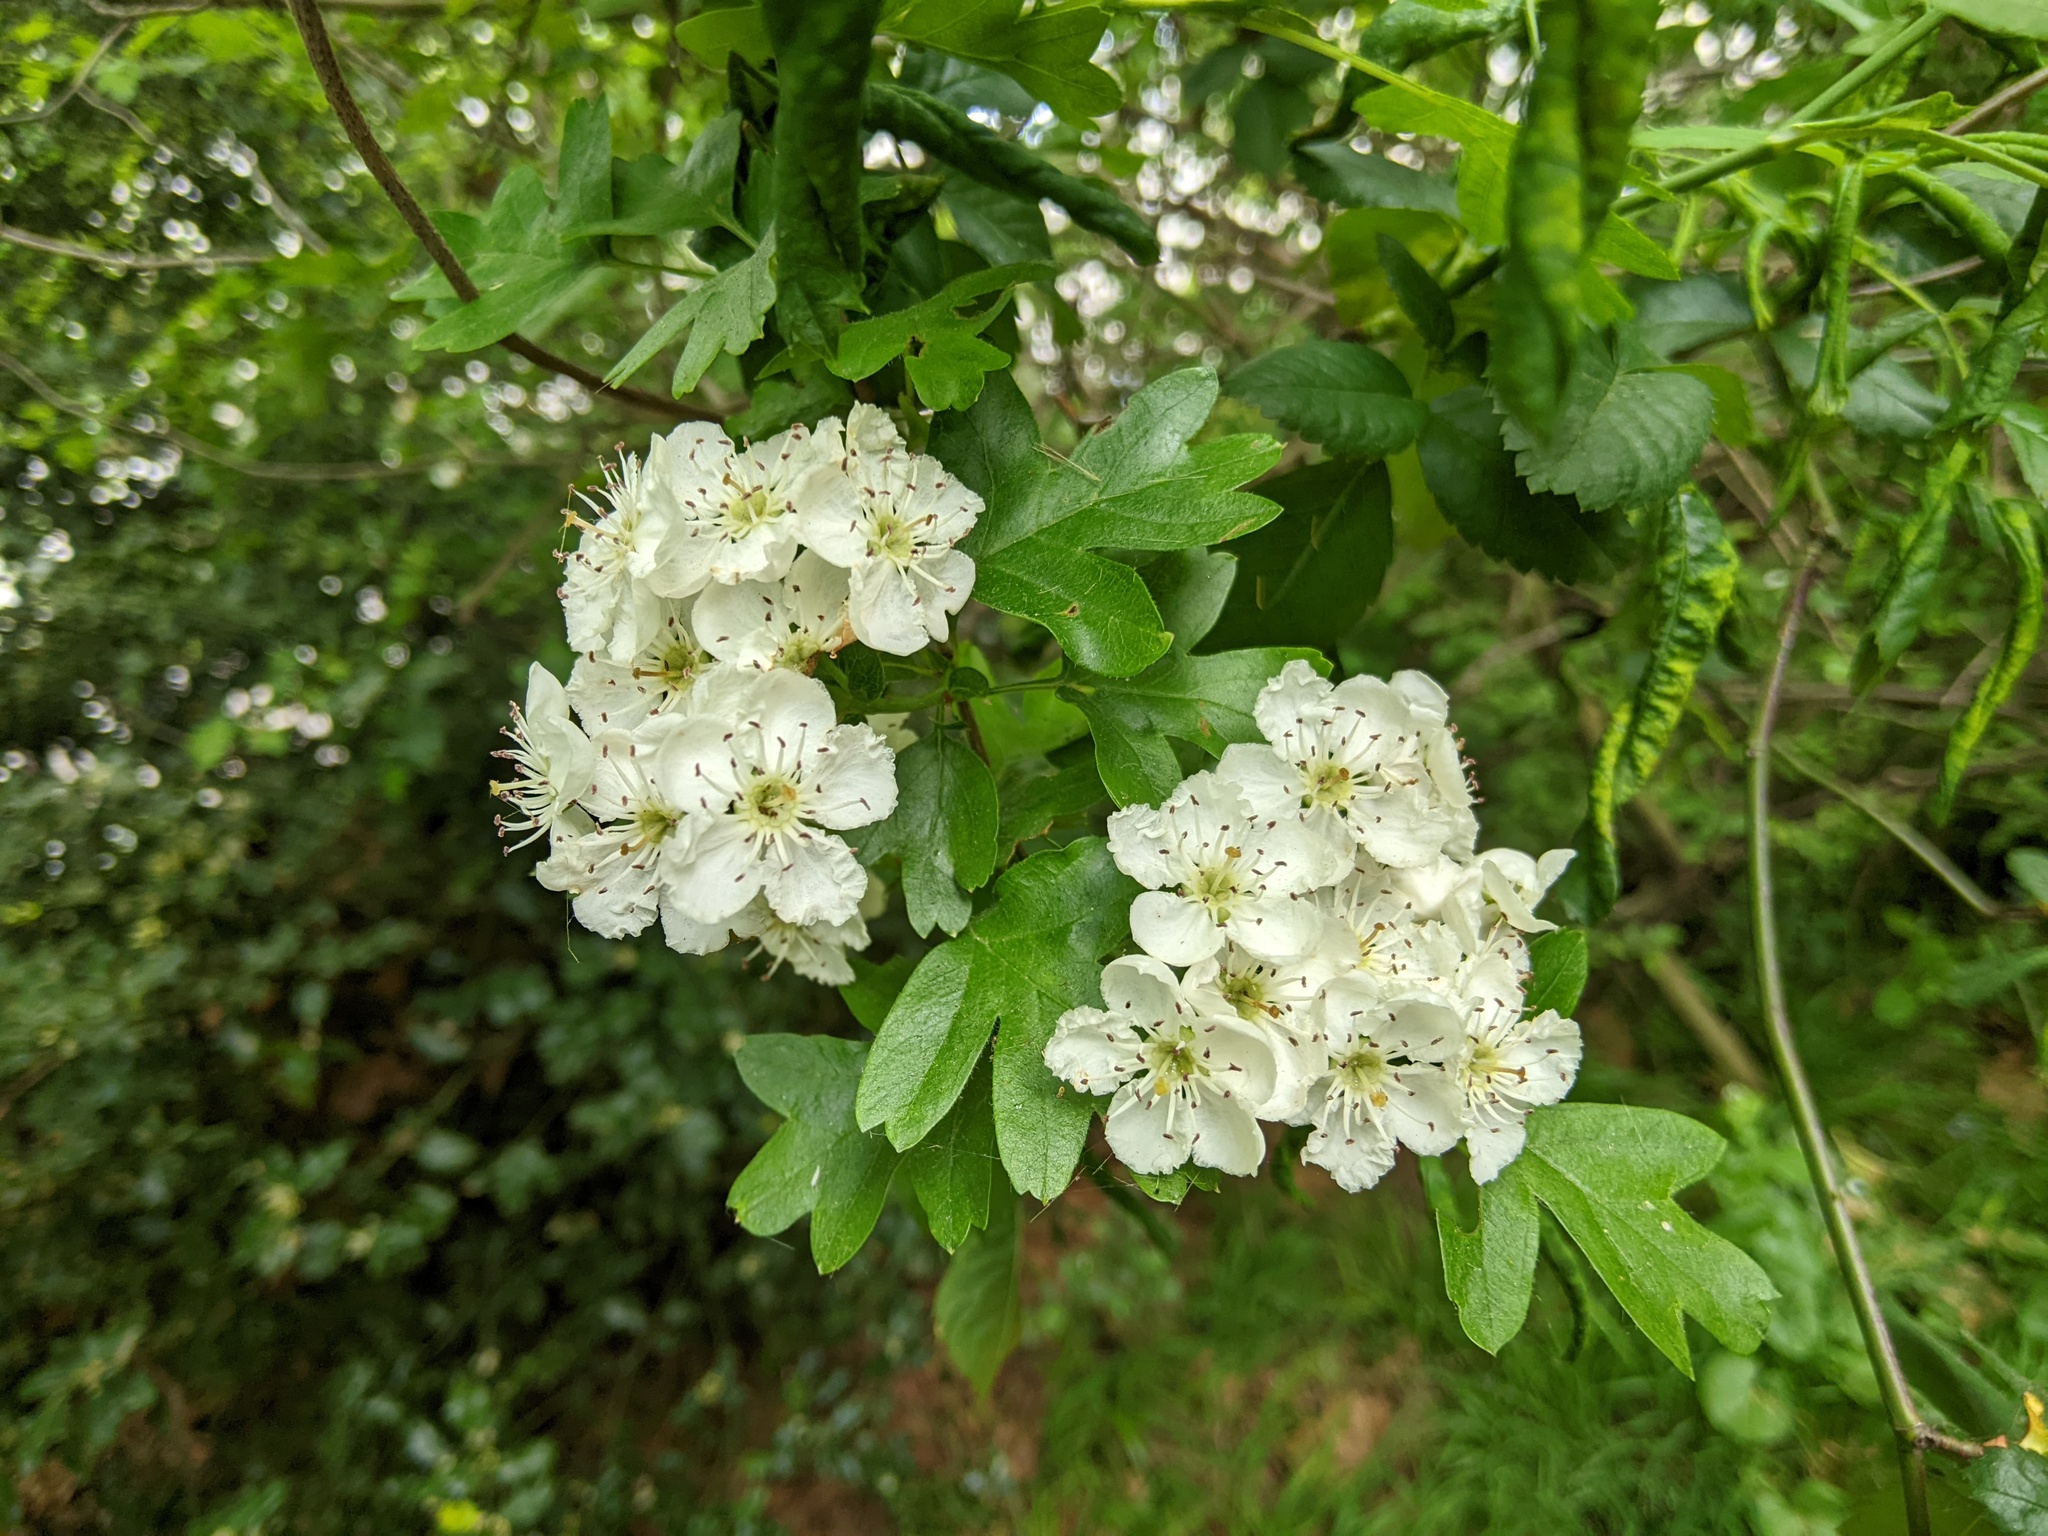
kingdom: Plantae
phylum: Tracheophyta
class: Magnoliopsida
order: Rosales
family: Rosaceae
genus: Crataegus
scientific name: Crataegus monogyna
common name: Hawthorn
